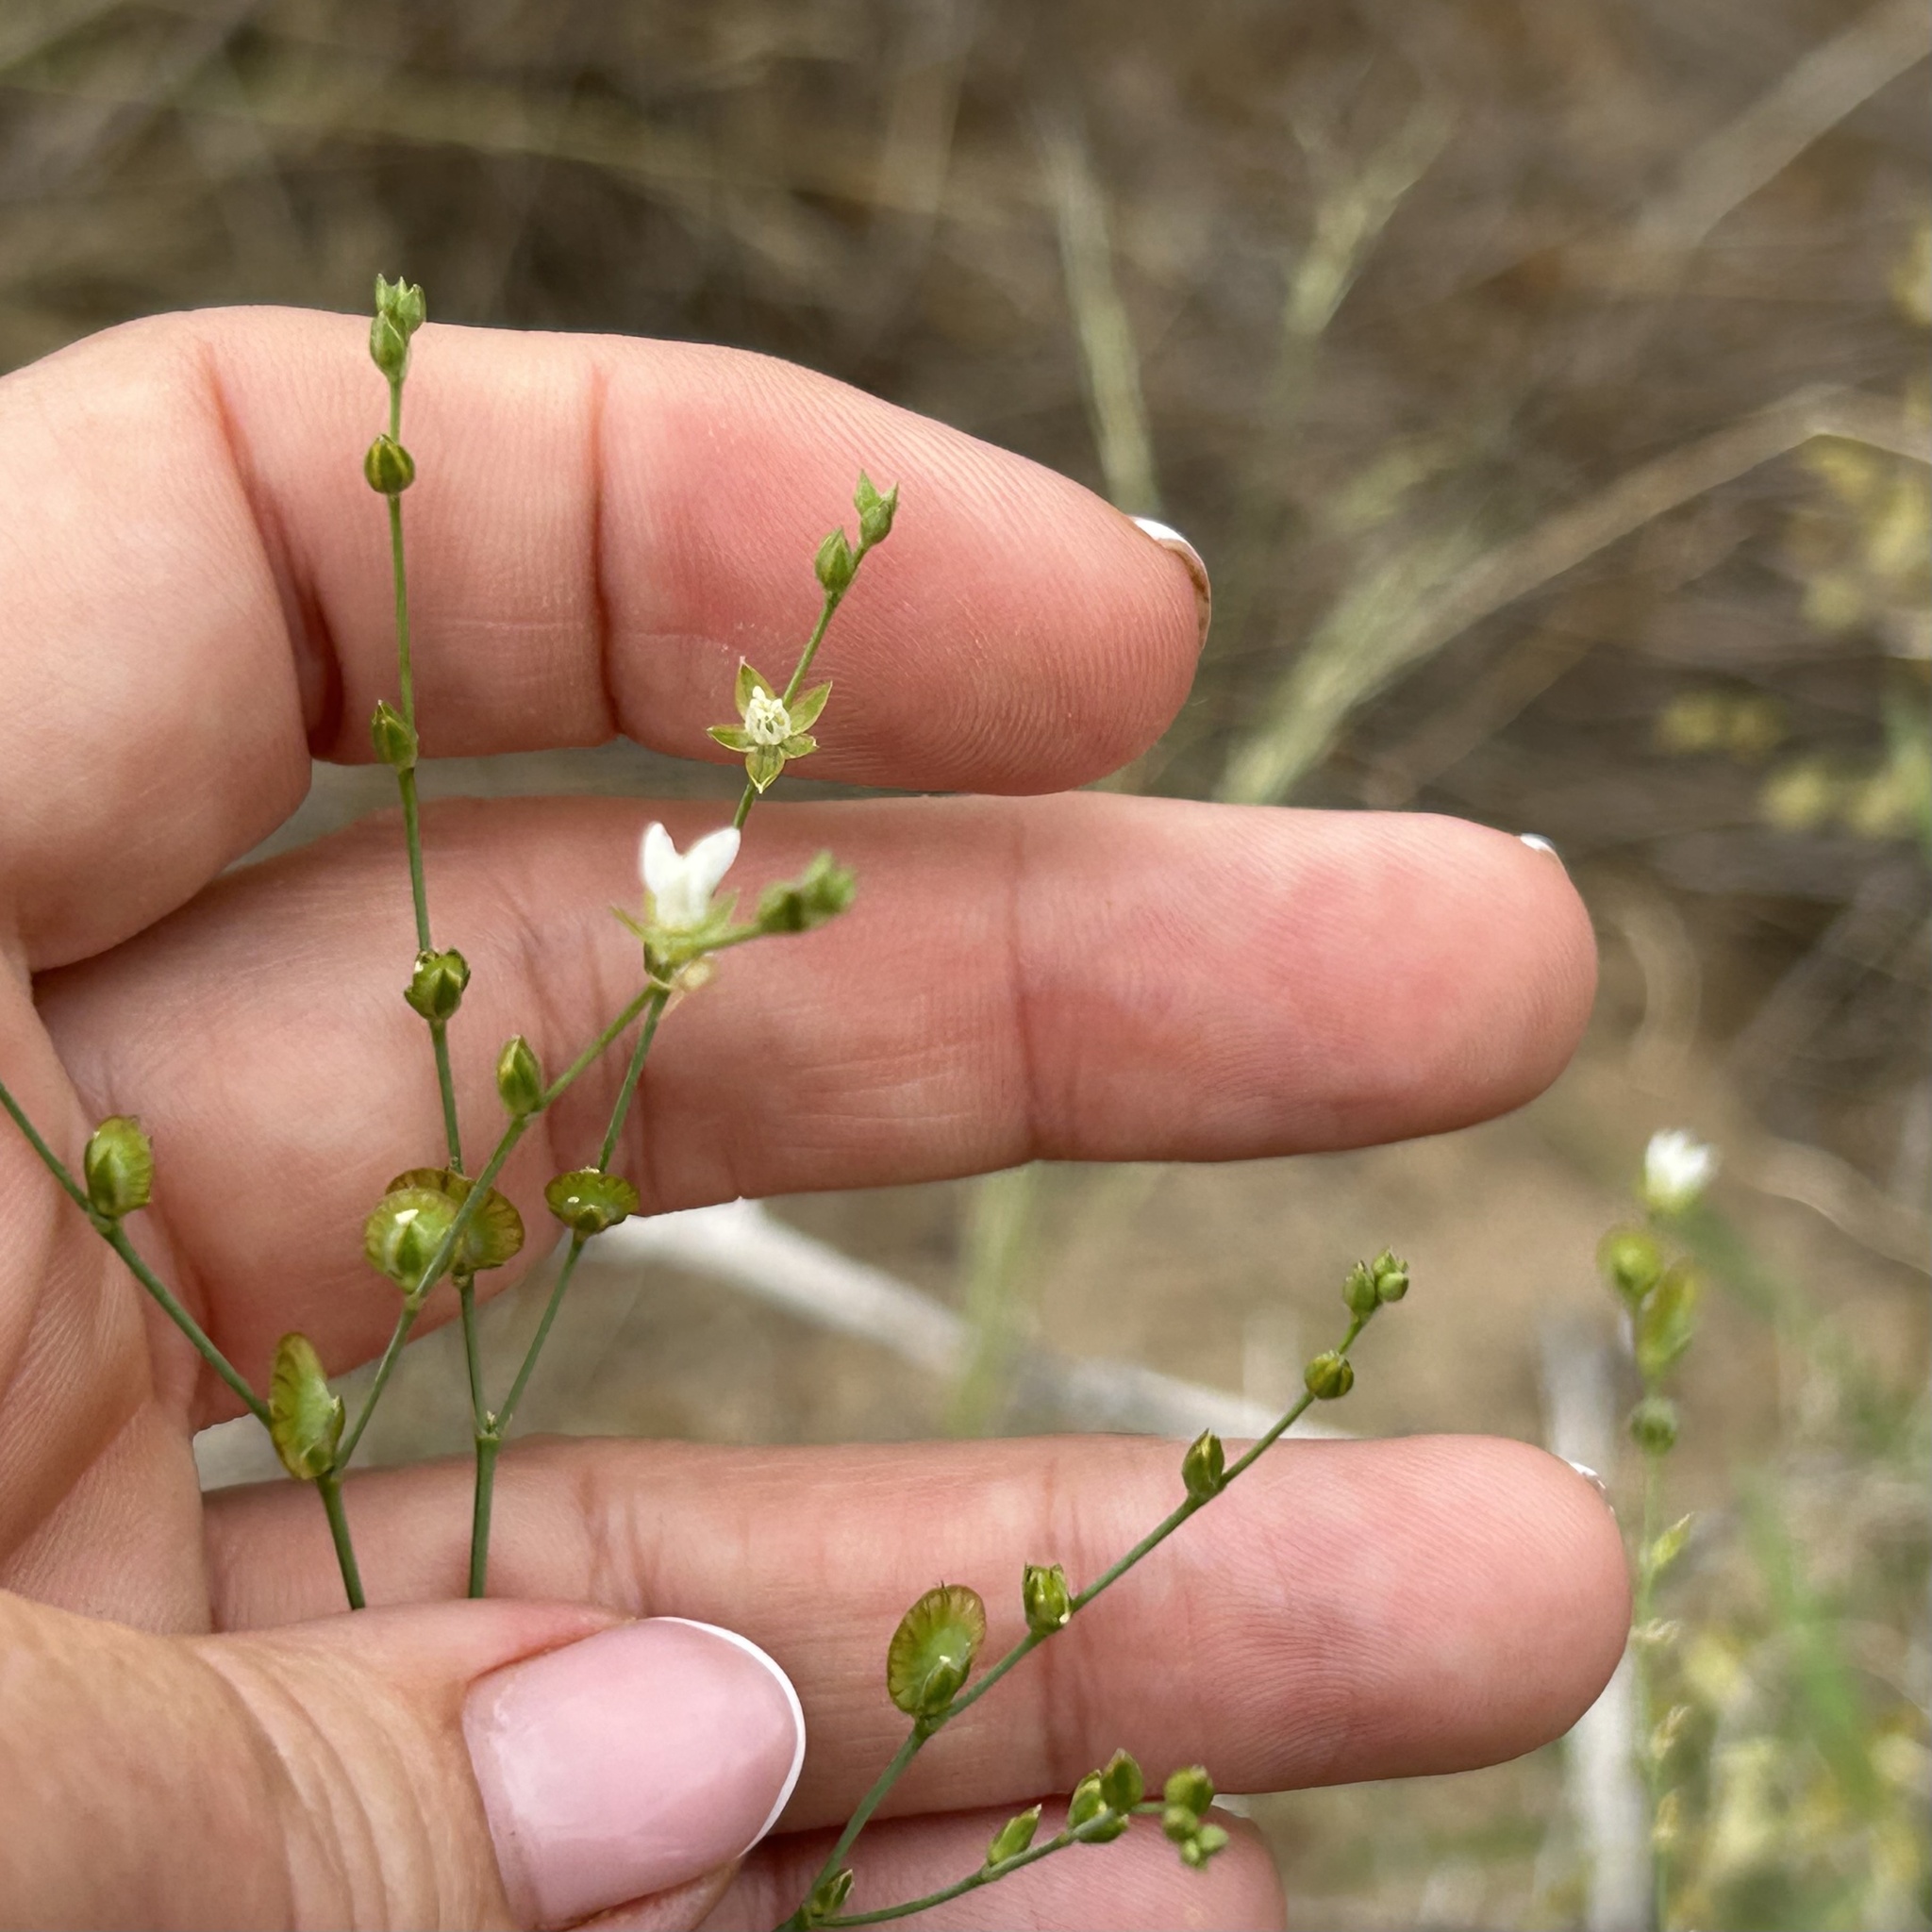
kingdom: Plantae
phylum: Tracheophyta
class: Magnoliopsida
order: Caryophyllales
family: Limeaceae
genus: Limeum
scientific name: Limeum fenestratum
